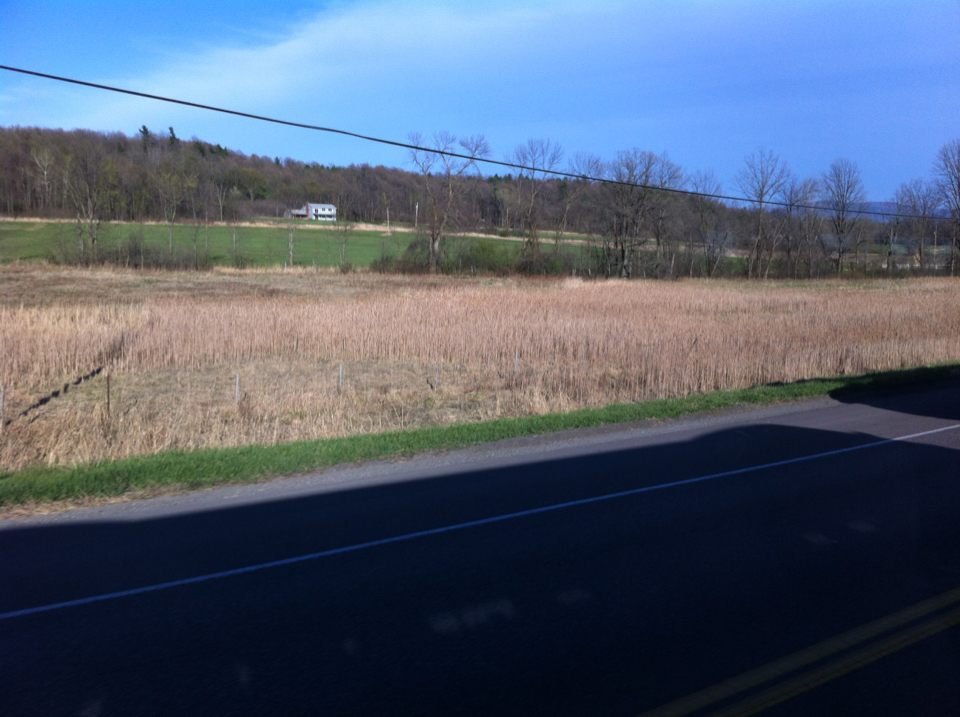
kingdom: Plantae
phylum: Tracheophyta
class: Liliopsida
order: Poales
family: Typhaceae
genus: Typha
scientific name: Typha
